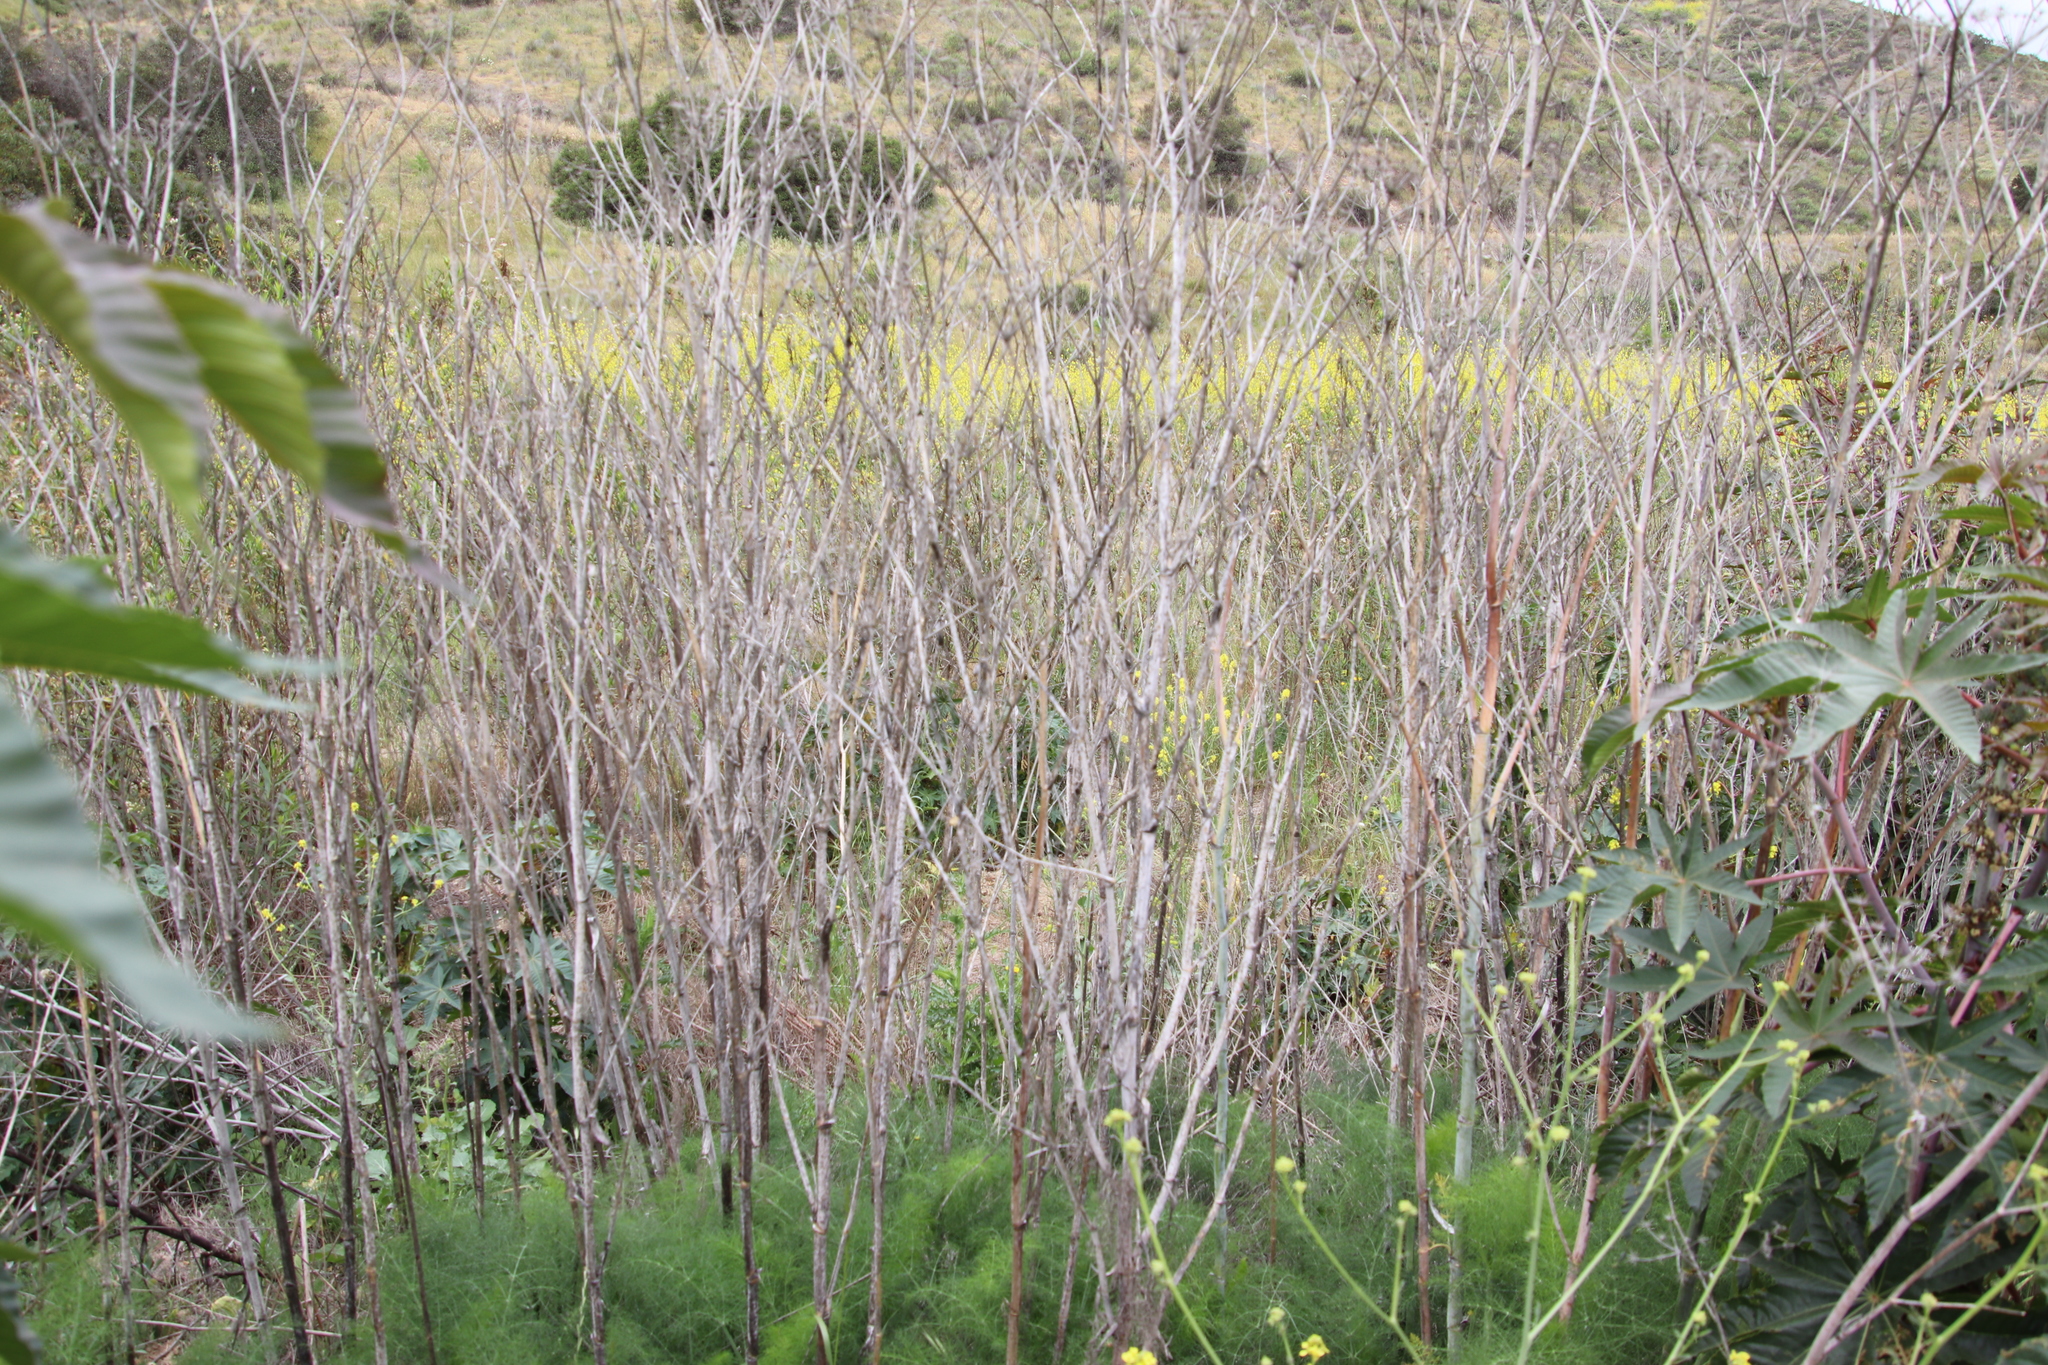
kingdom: Plantae
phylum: Tracheophyta
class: Magnoliopsida
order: Apiales
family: Apiaceae
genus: Foeniculum
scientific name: Foeniculum vulgare
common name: Fennel
